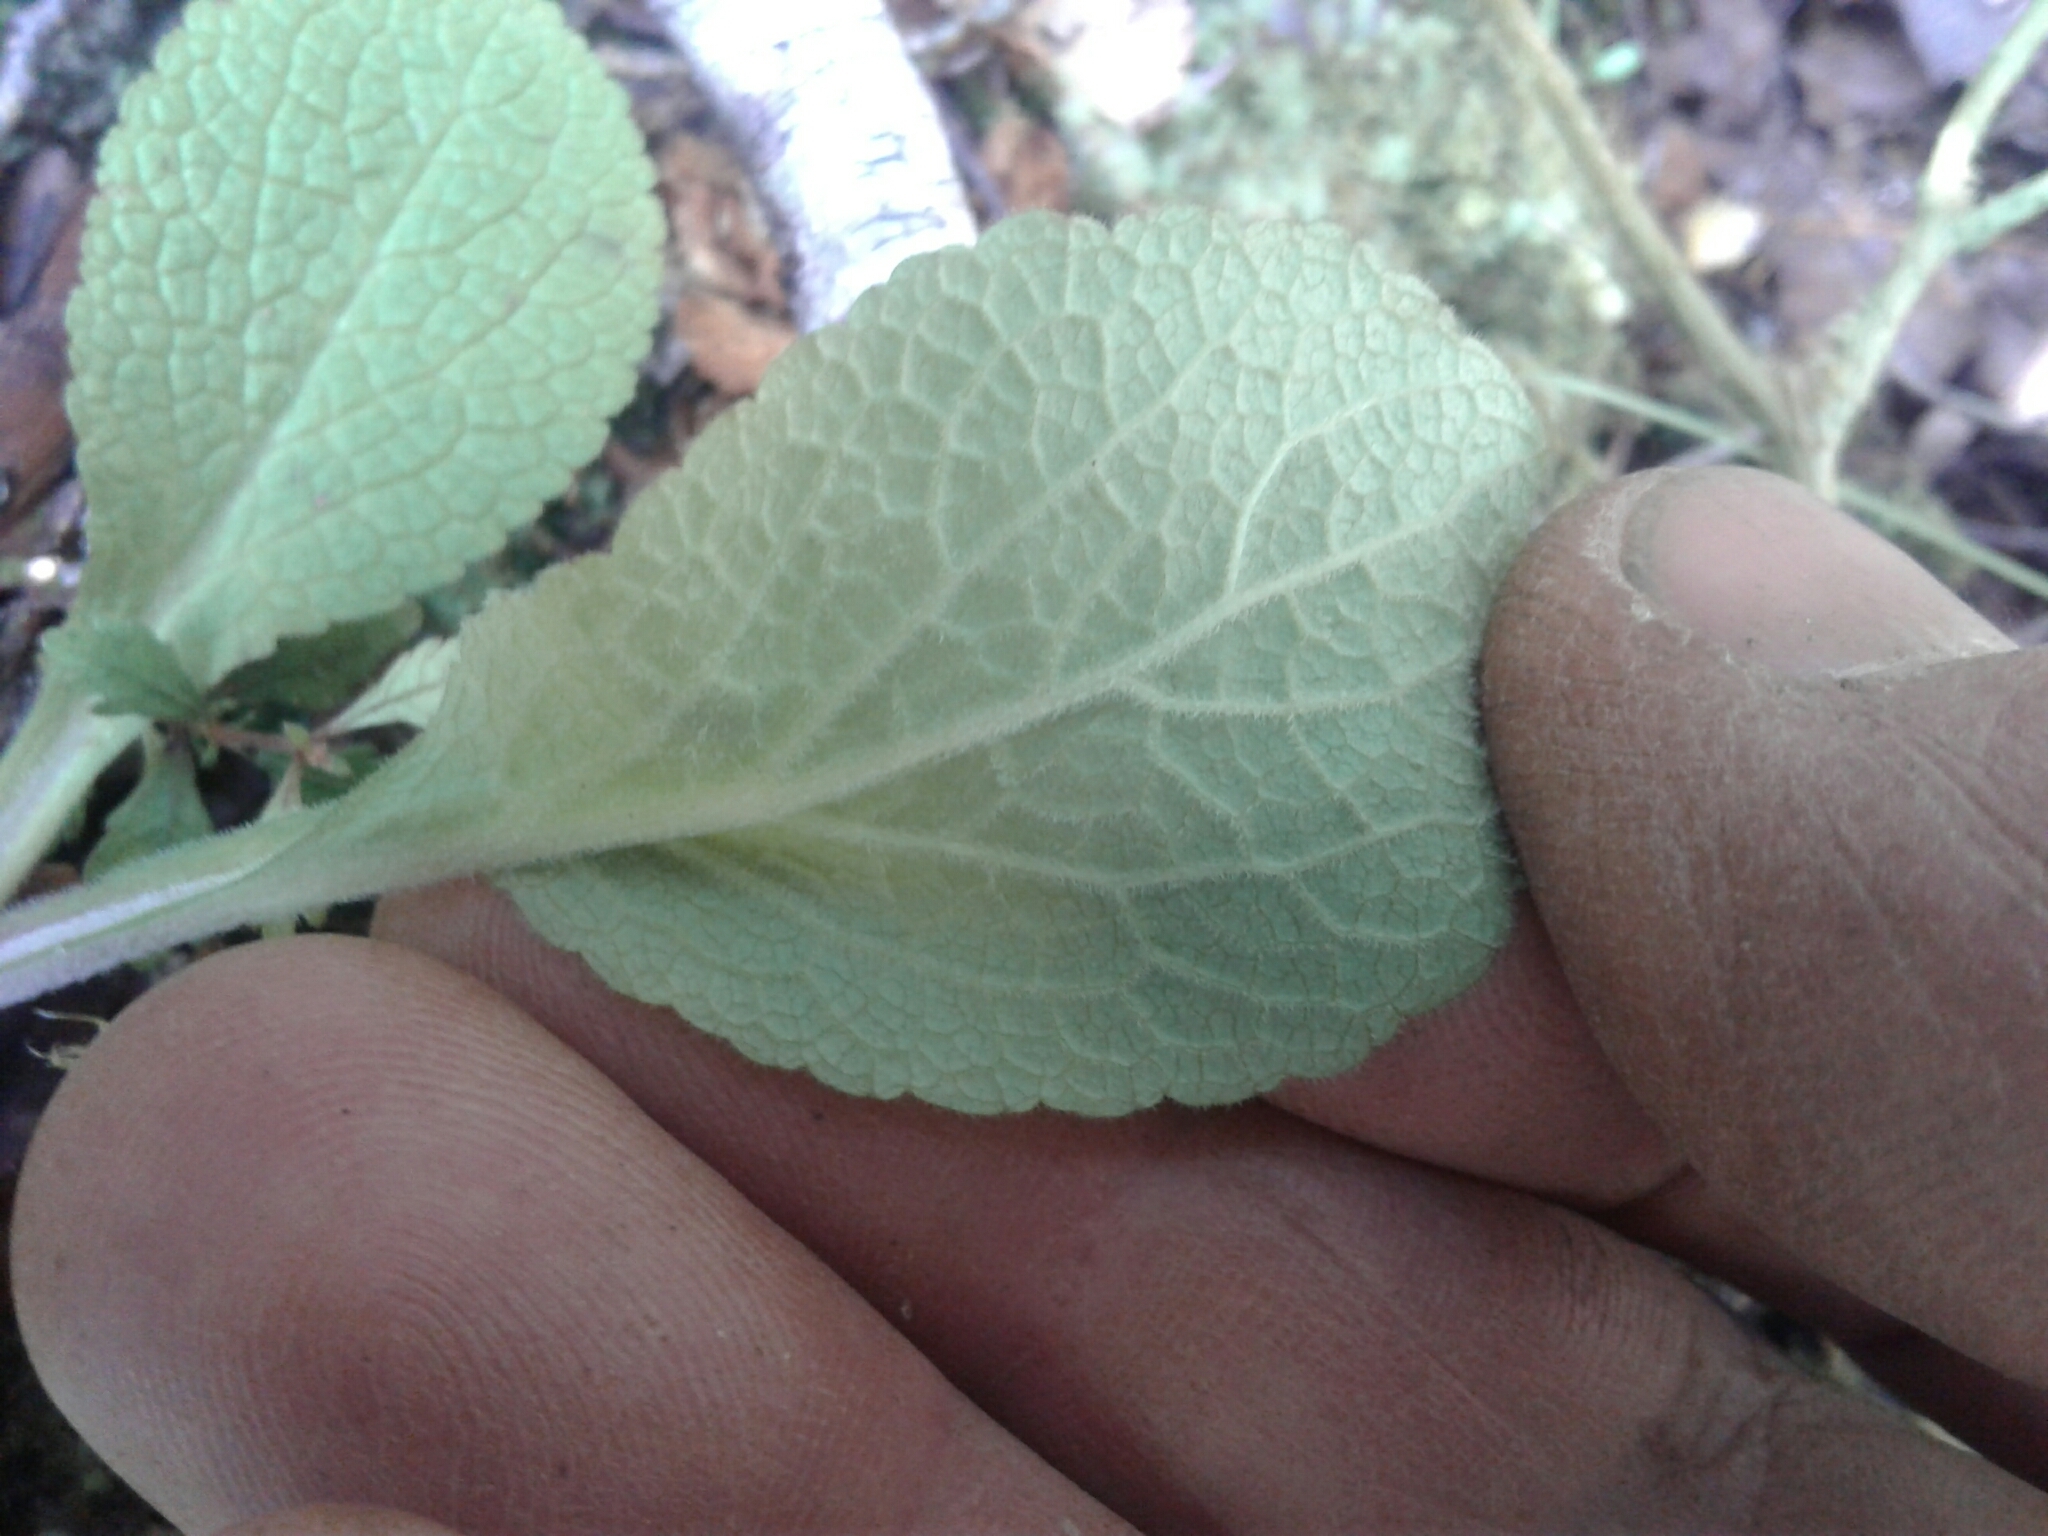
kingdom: Plantae
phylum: Tracheophyta
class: Magnoliopsida
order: Lamiales
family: Plantaginaceae
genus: Digitalis
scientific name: Digitalis purpurea
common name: Foxglove
